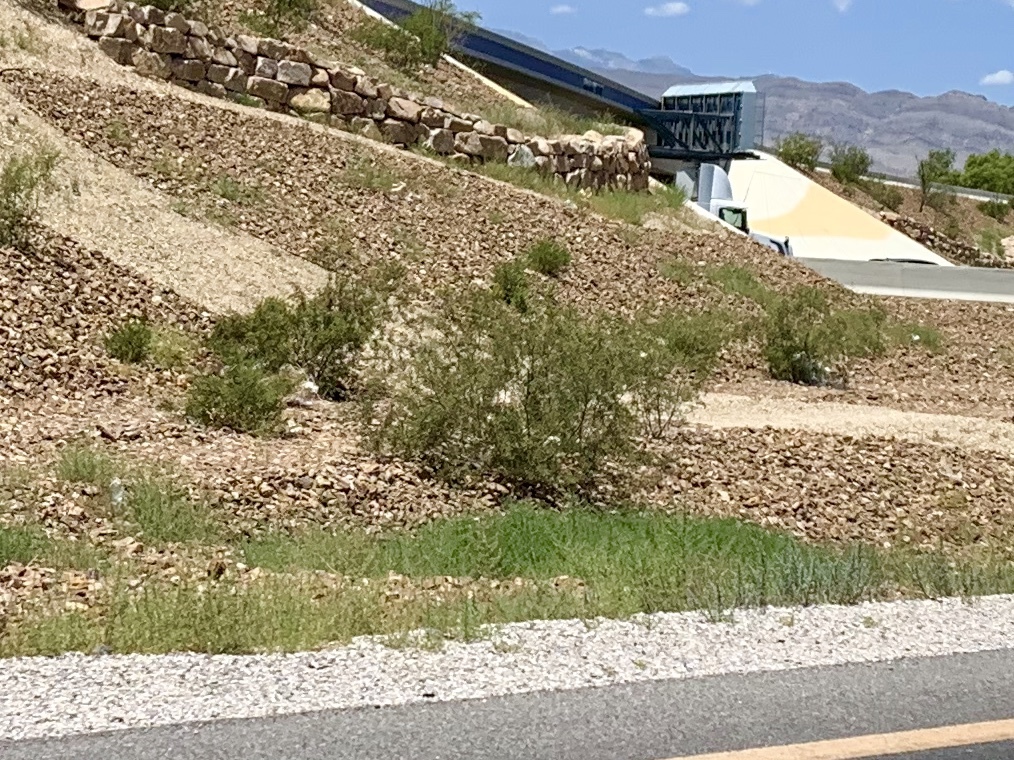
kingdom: Plantae
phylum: Tracheophyta
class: Magnoliopsida
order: Zygophyllales
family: Zygophyllaceae
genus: Larrea
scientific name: Larrea tridentata
